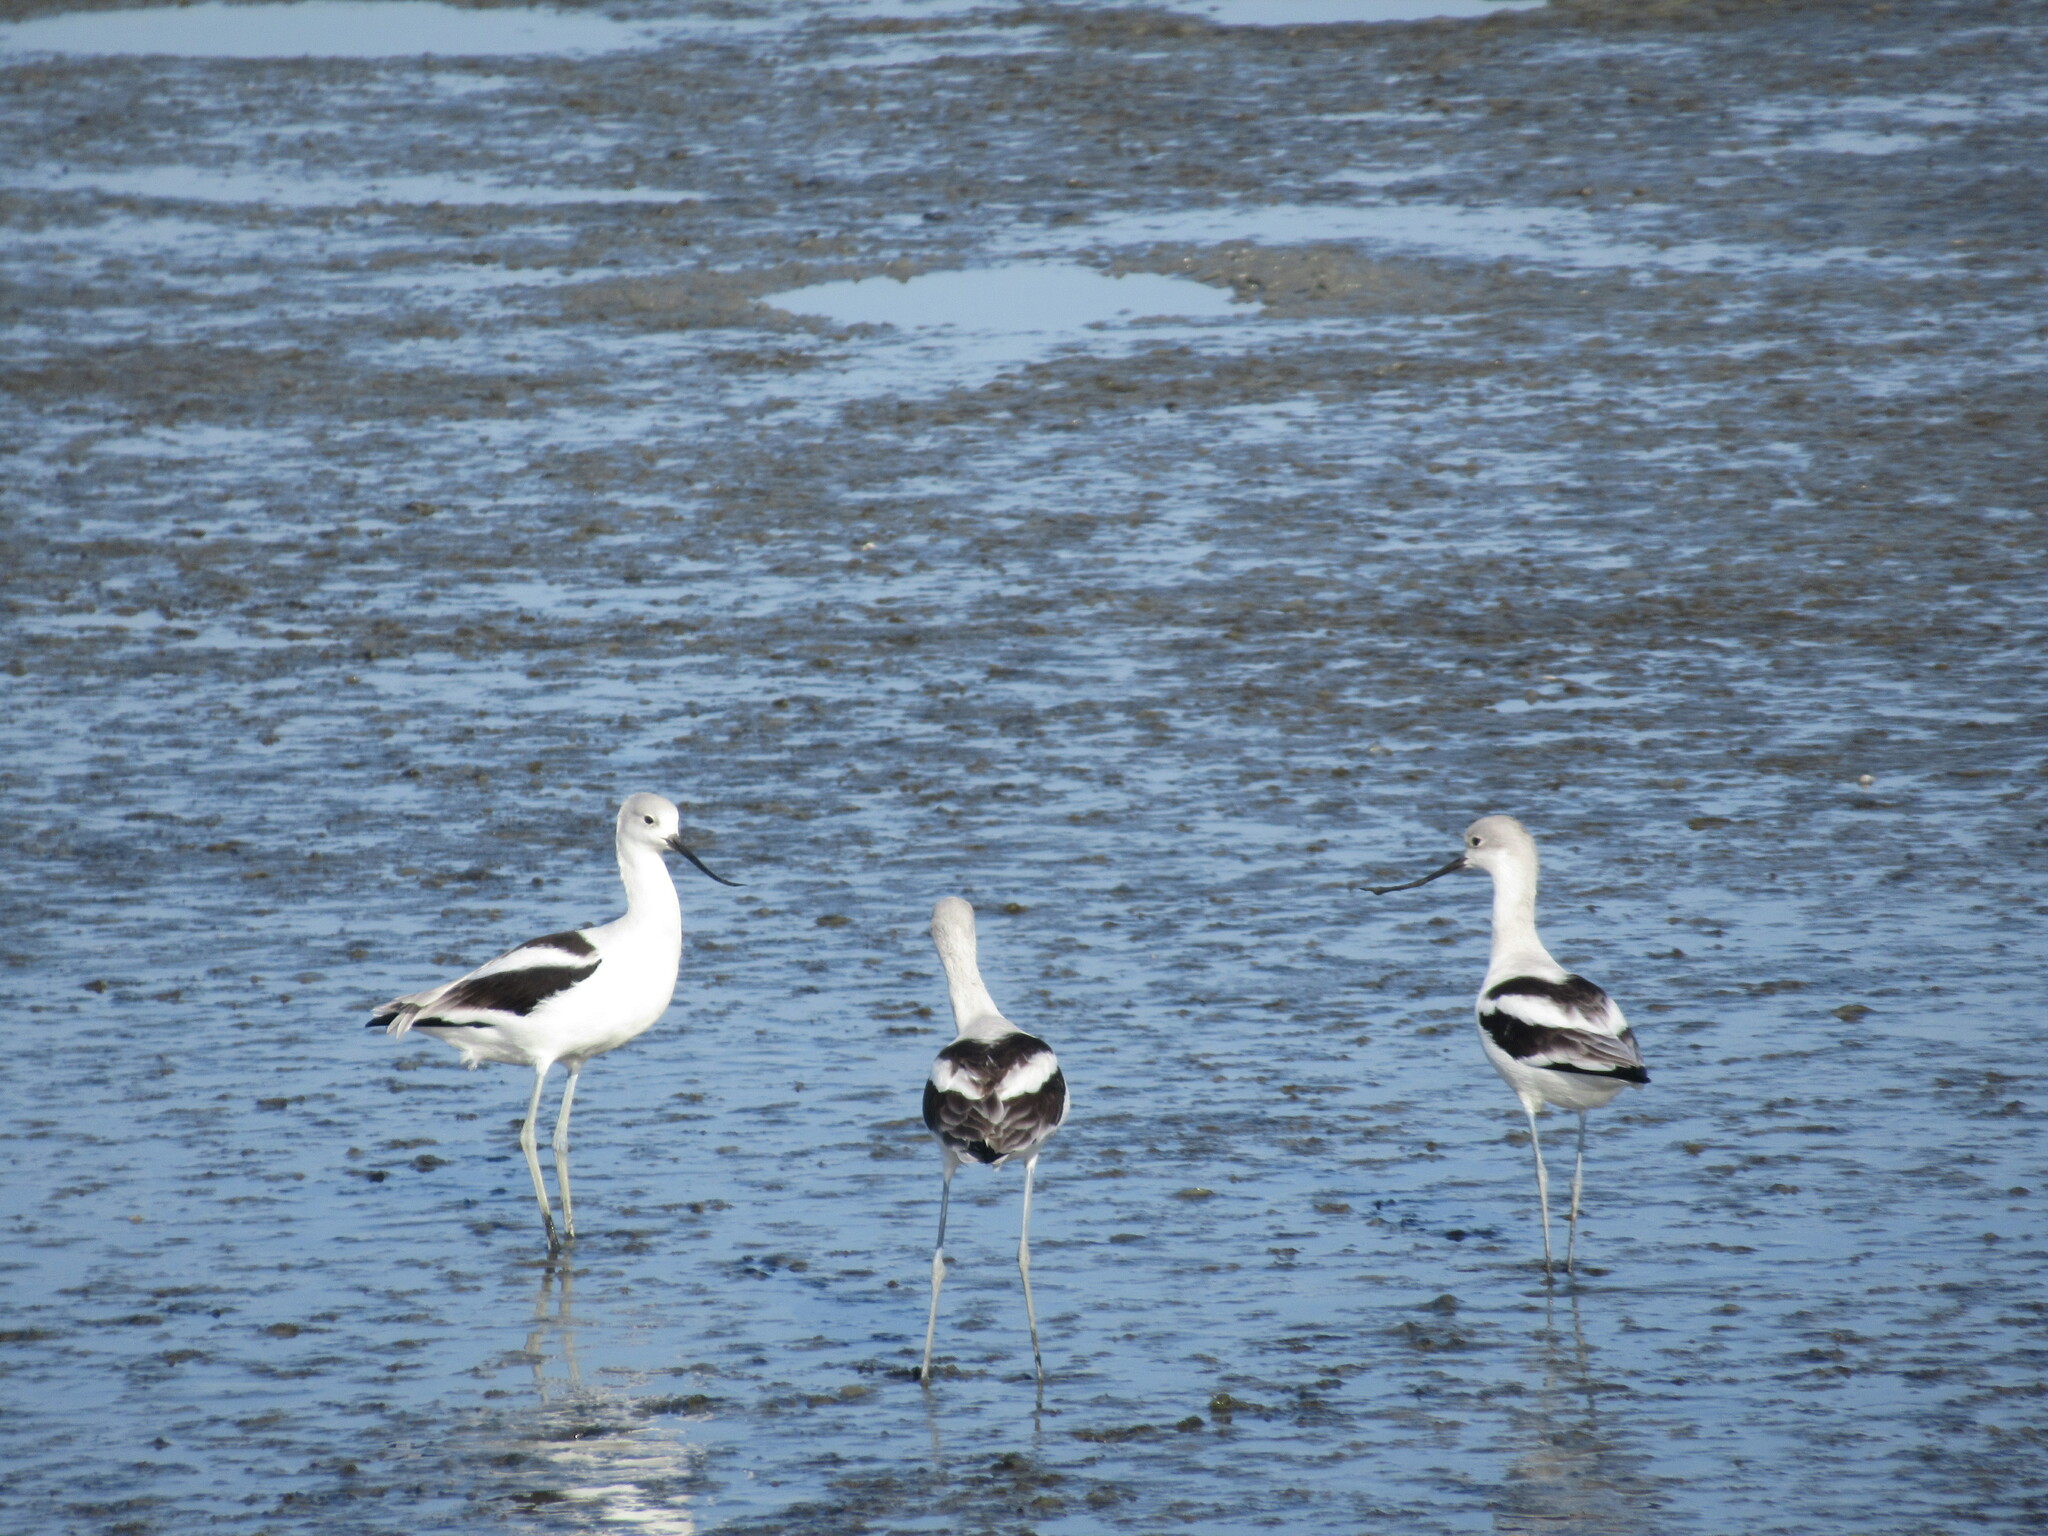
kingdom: Animalia
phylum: Chordata
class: Aves
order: Charadriiformes
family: Recurvirostridae
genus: Recurvirostra
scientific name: Recurvirostra americana
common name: American avocet
